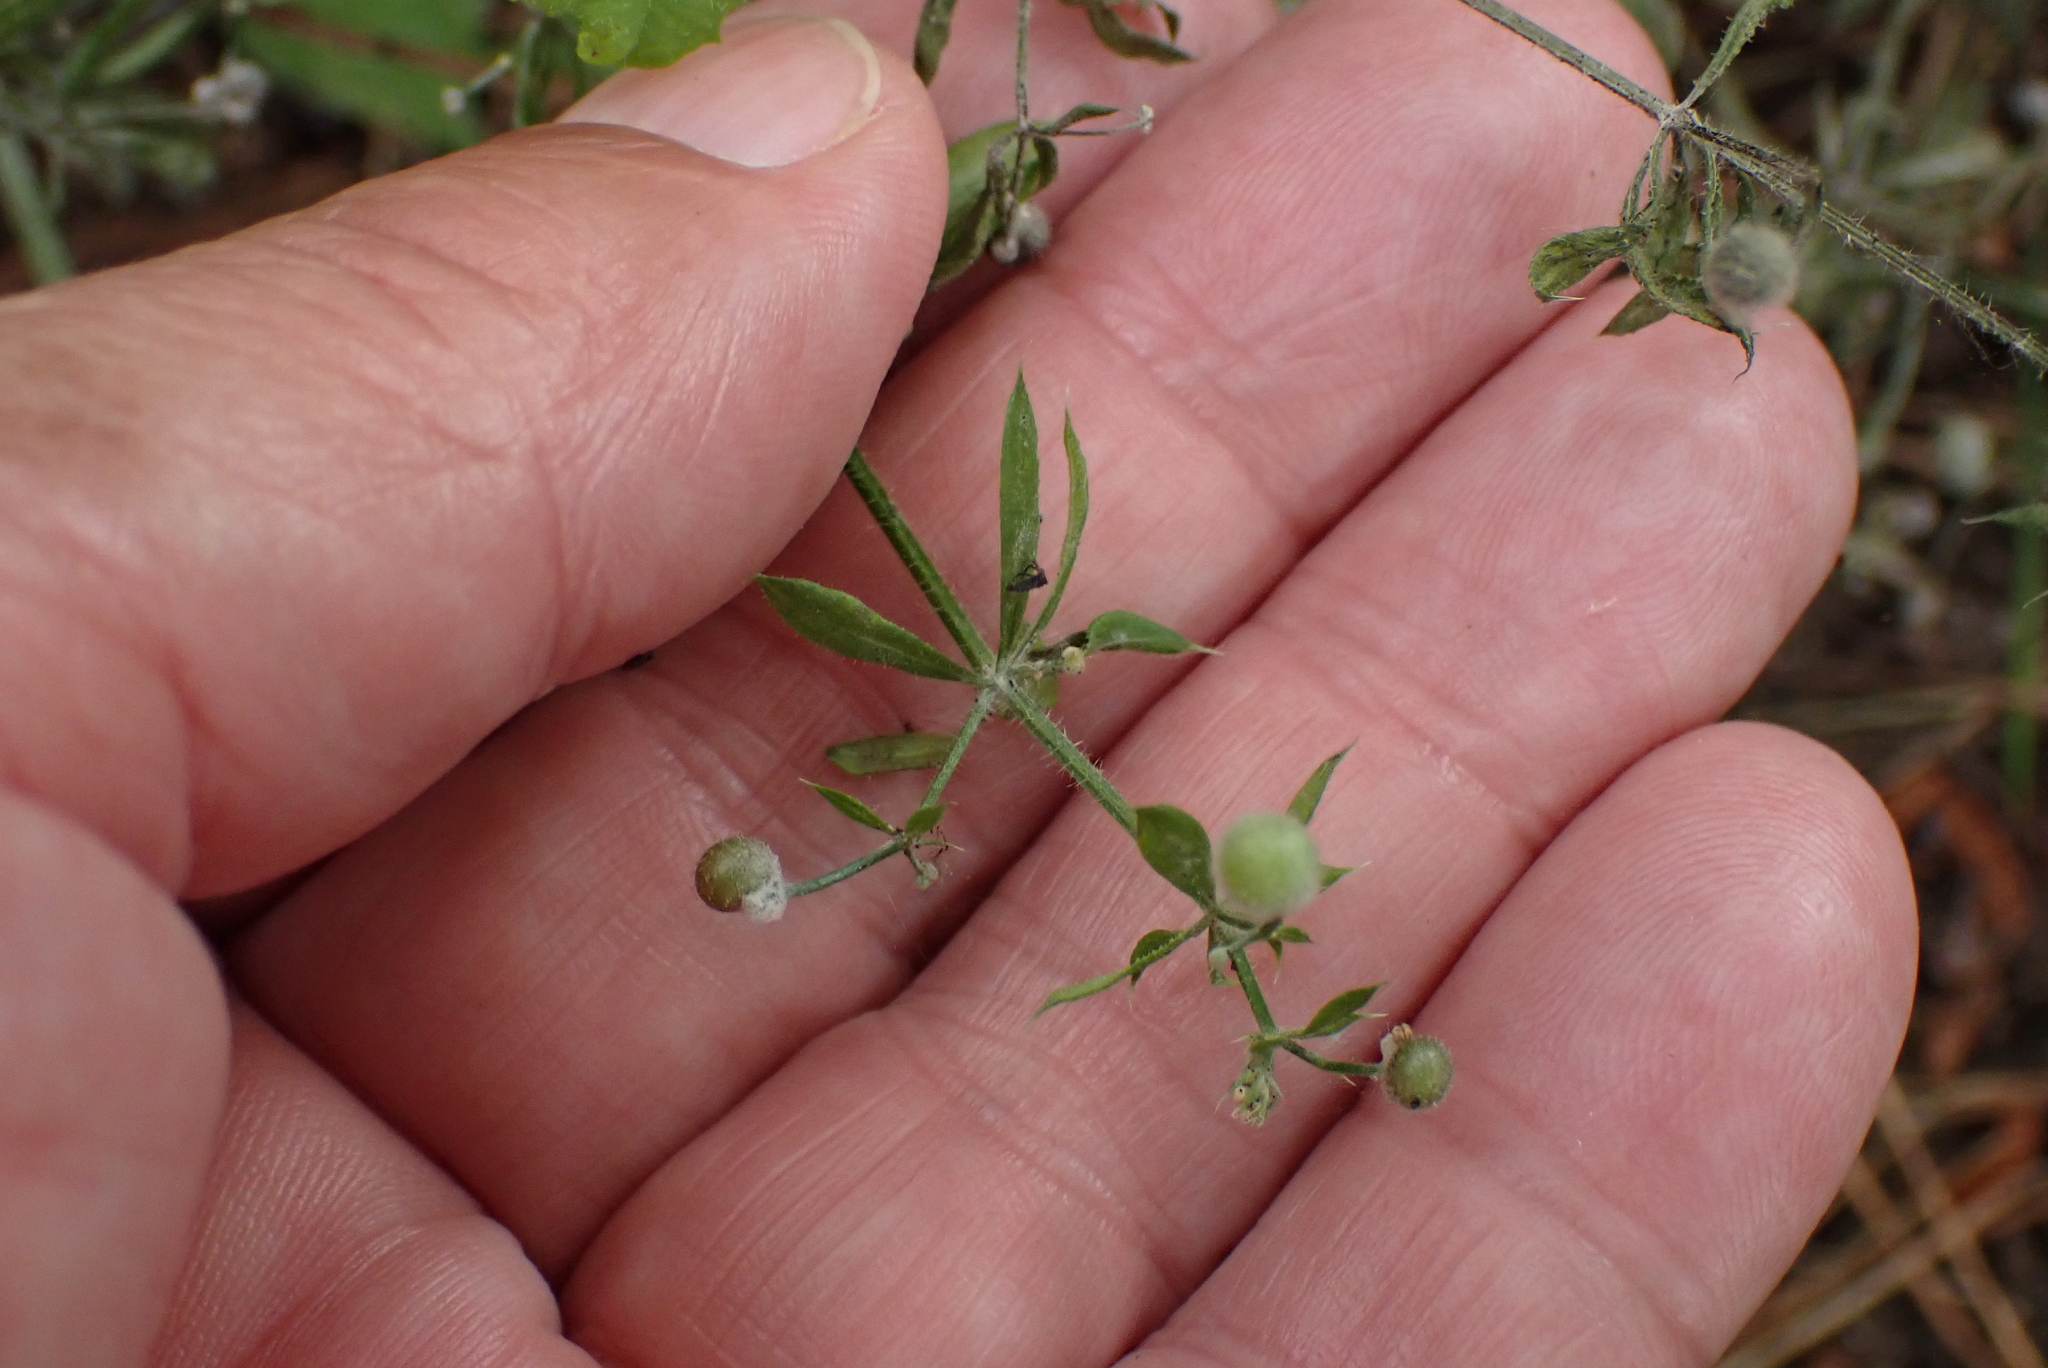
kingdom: Plantae
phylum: Tracheophyta
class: Magnoliopsida
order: Gentianales
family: Rubiaceae
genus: Galium
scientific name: Galium aparine
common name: Cleavers
